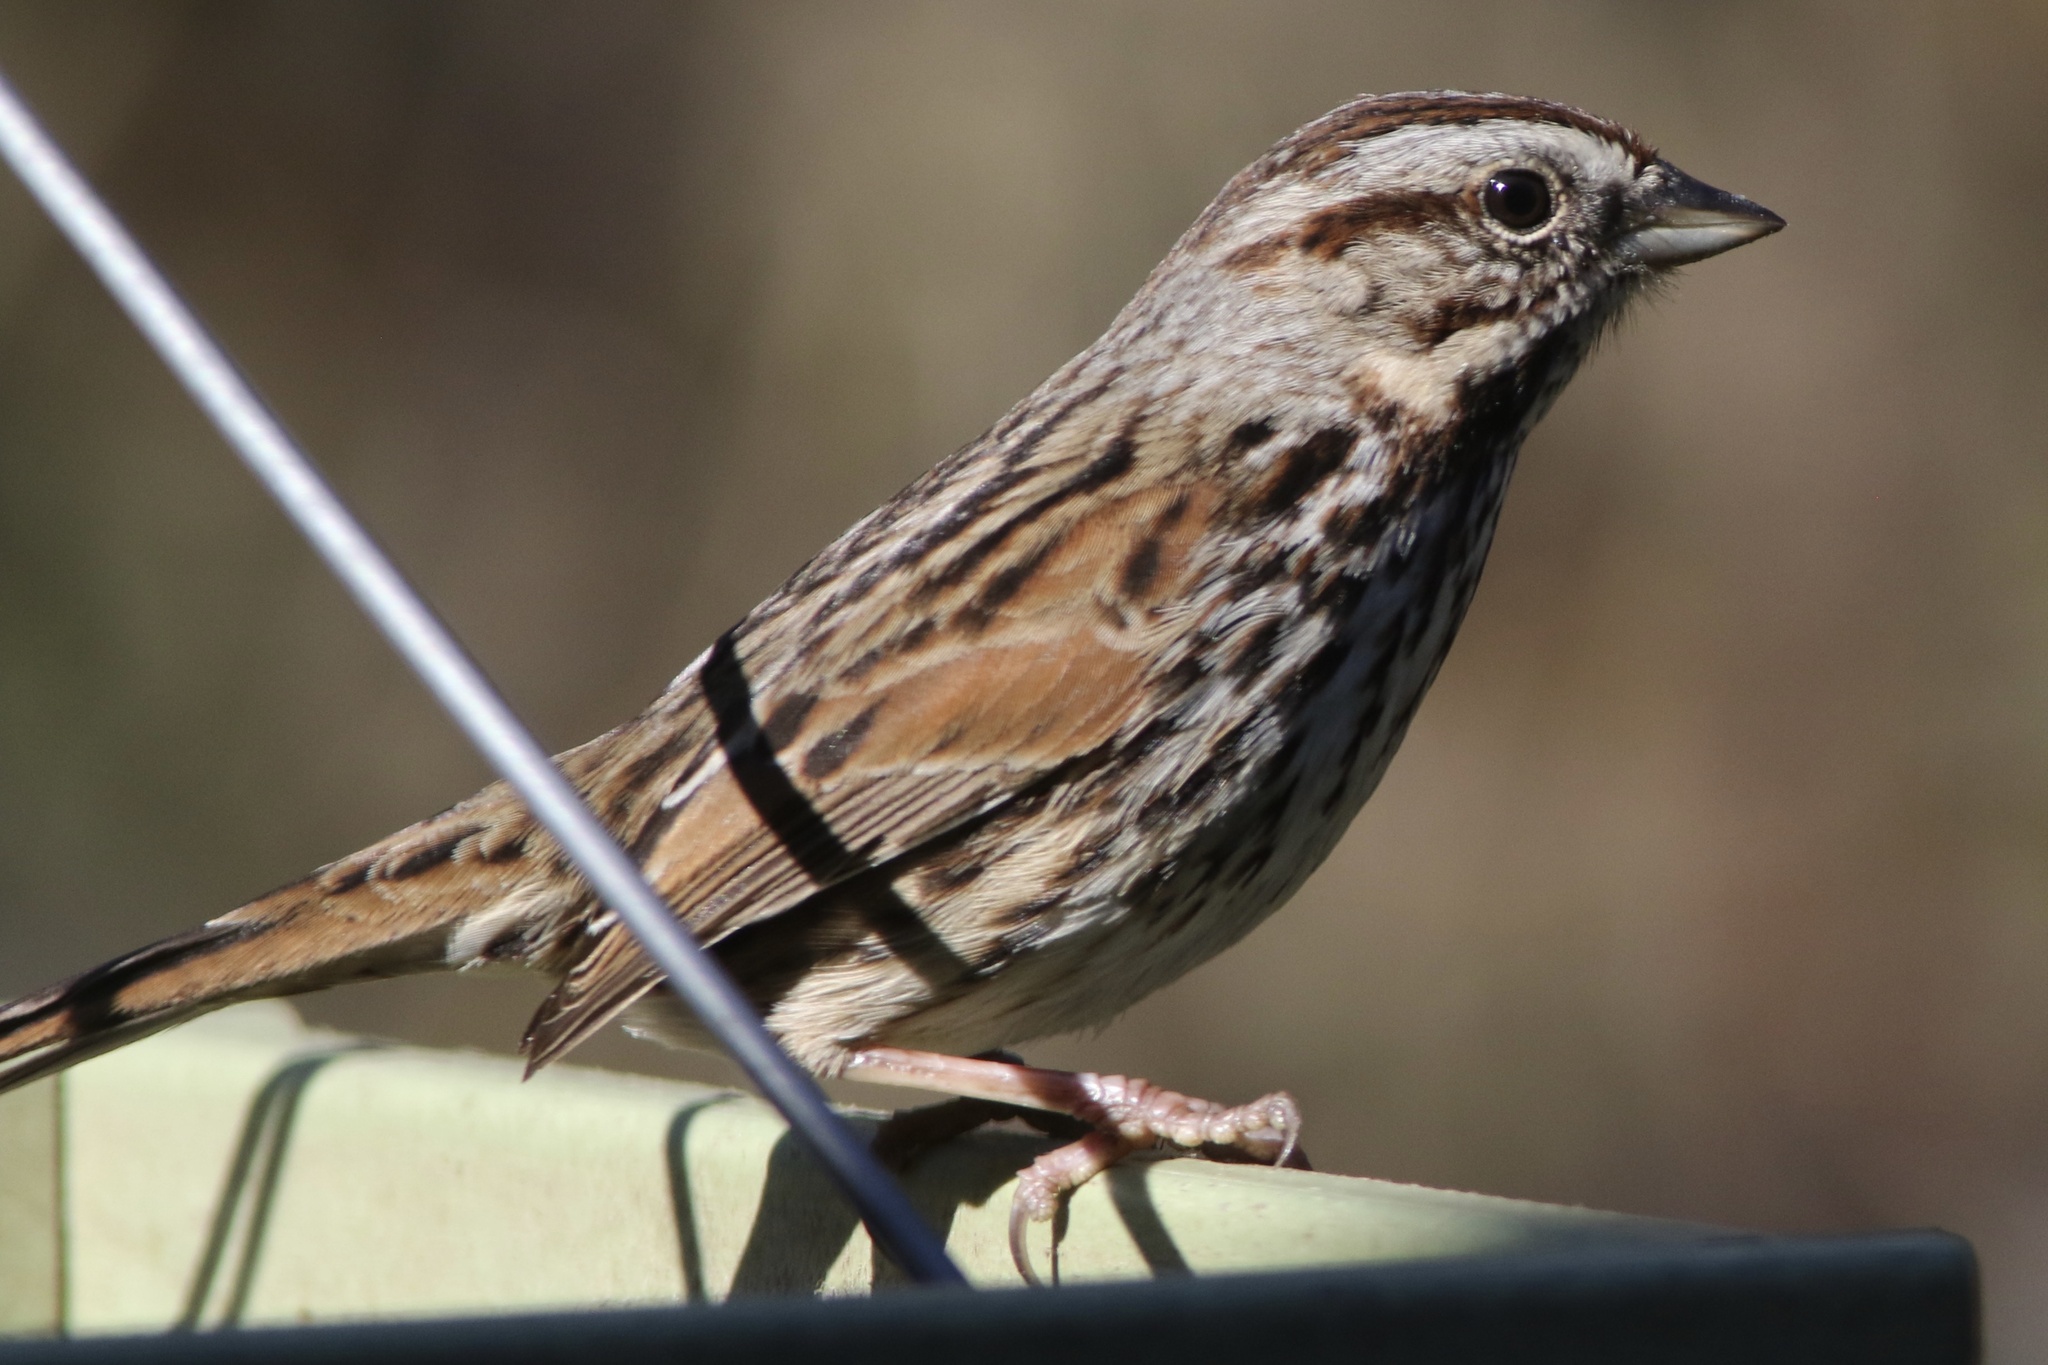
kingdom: Animalia
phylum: Chordata
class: Aves
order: Passeriformes
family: Passerellidae
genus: Melospiza
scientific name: Melospiza melodia
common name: Song sparrow
